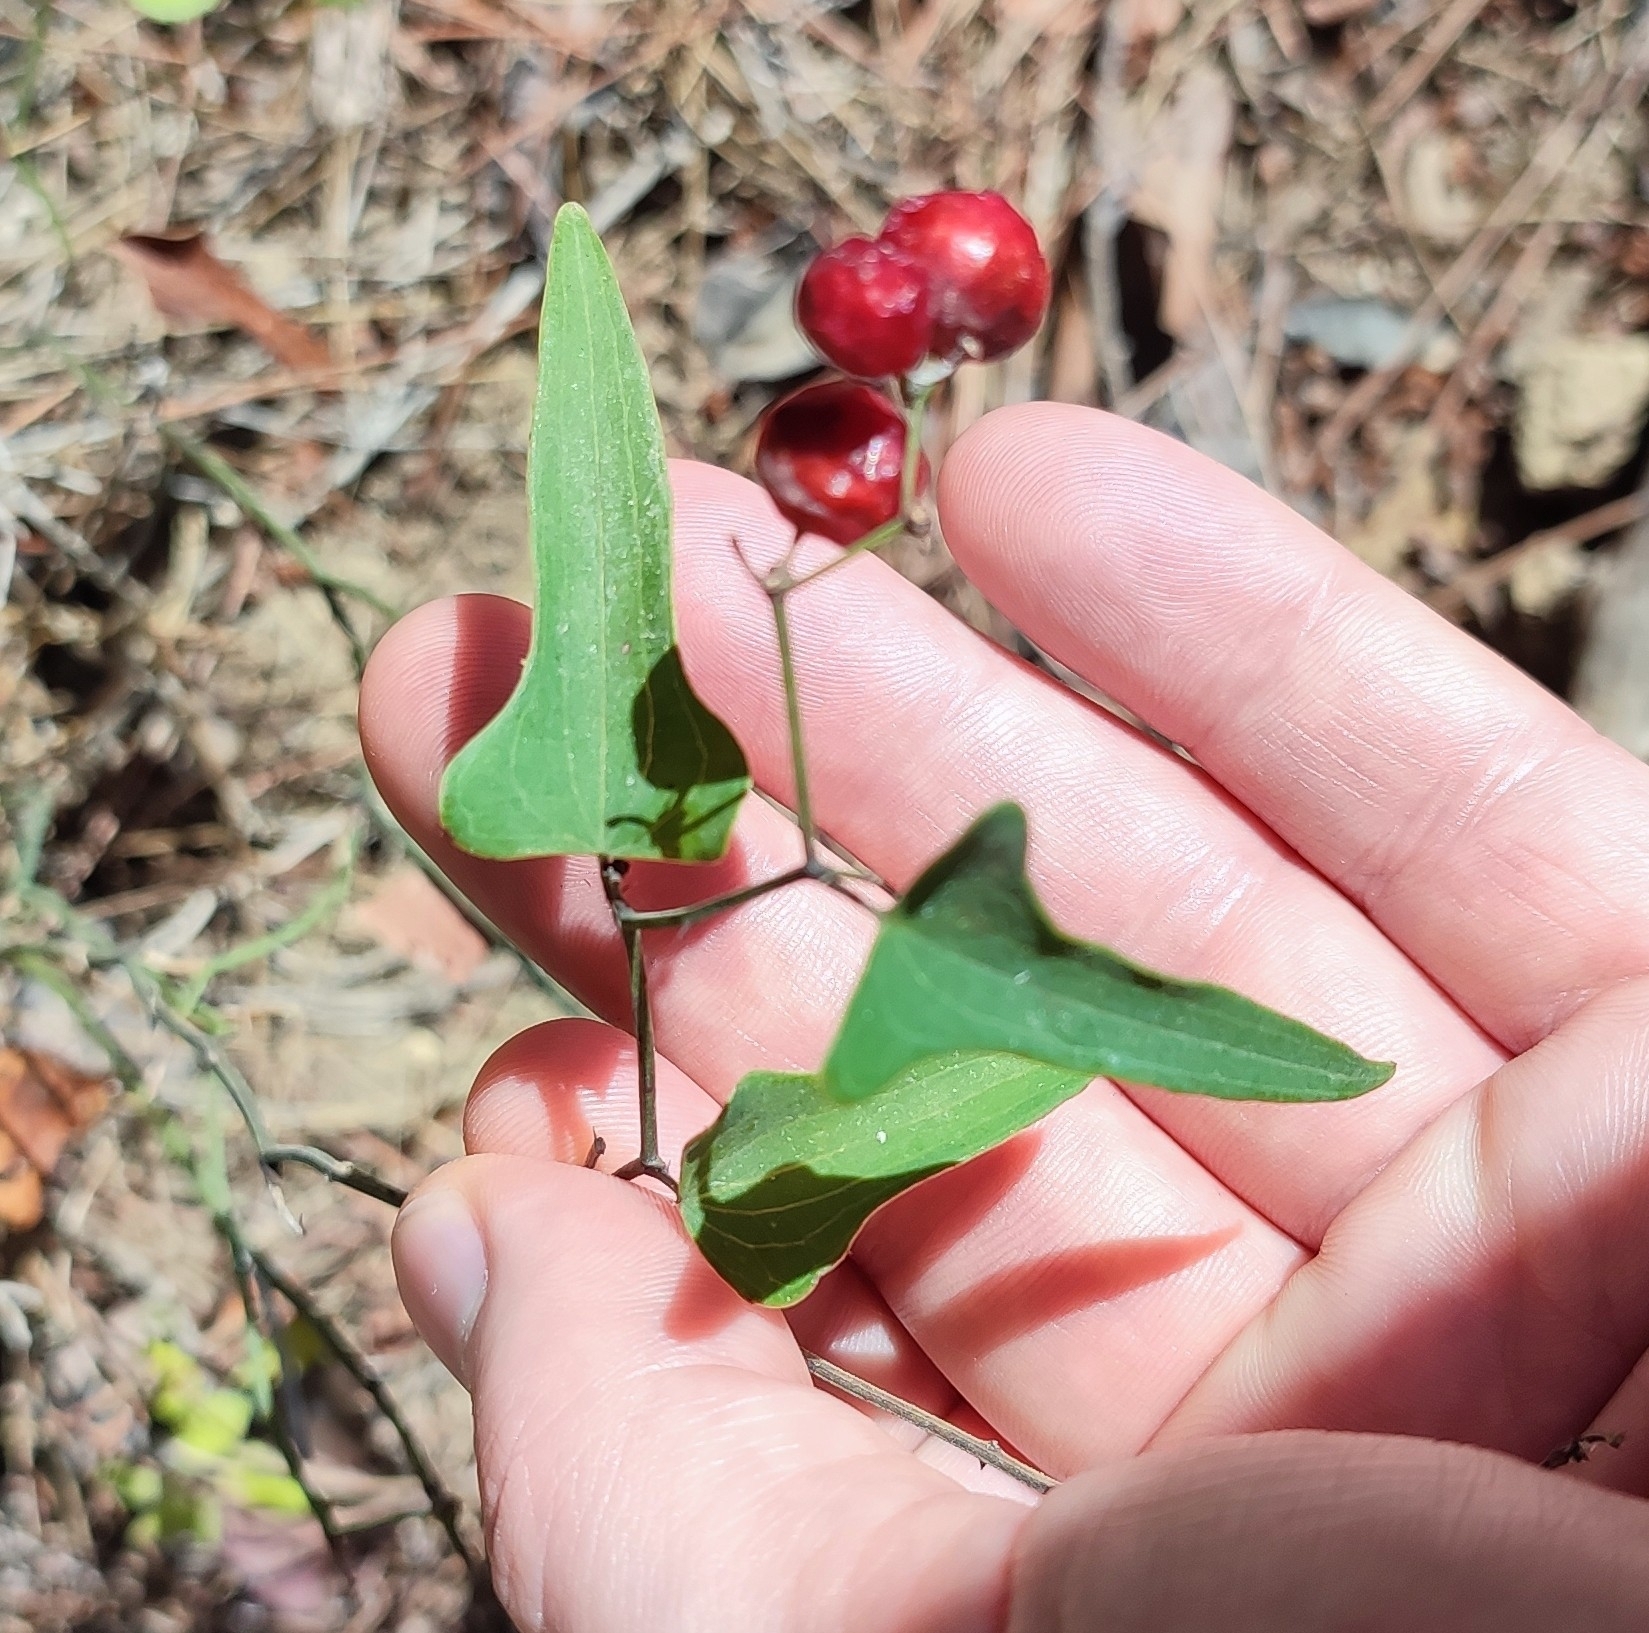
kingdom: Plantae
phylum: Tracheophyta
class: Liliopsida
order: Liliales
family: Smilacaceae
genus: Smilax
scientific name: Smilax aspera
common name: Common smilax
